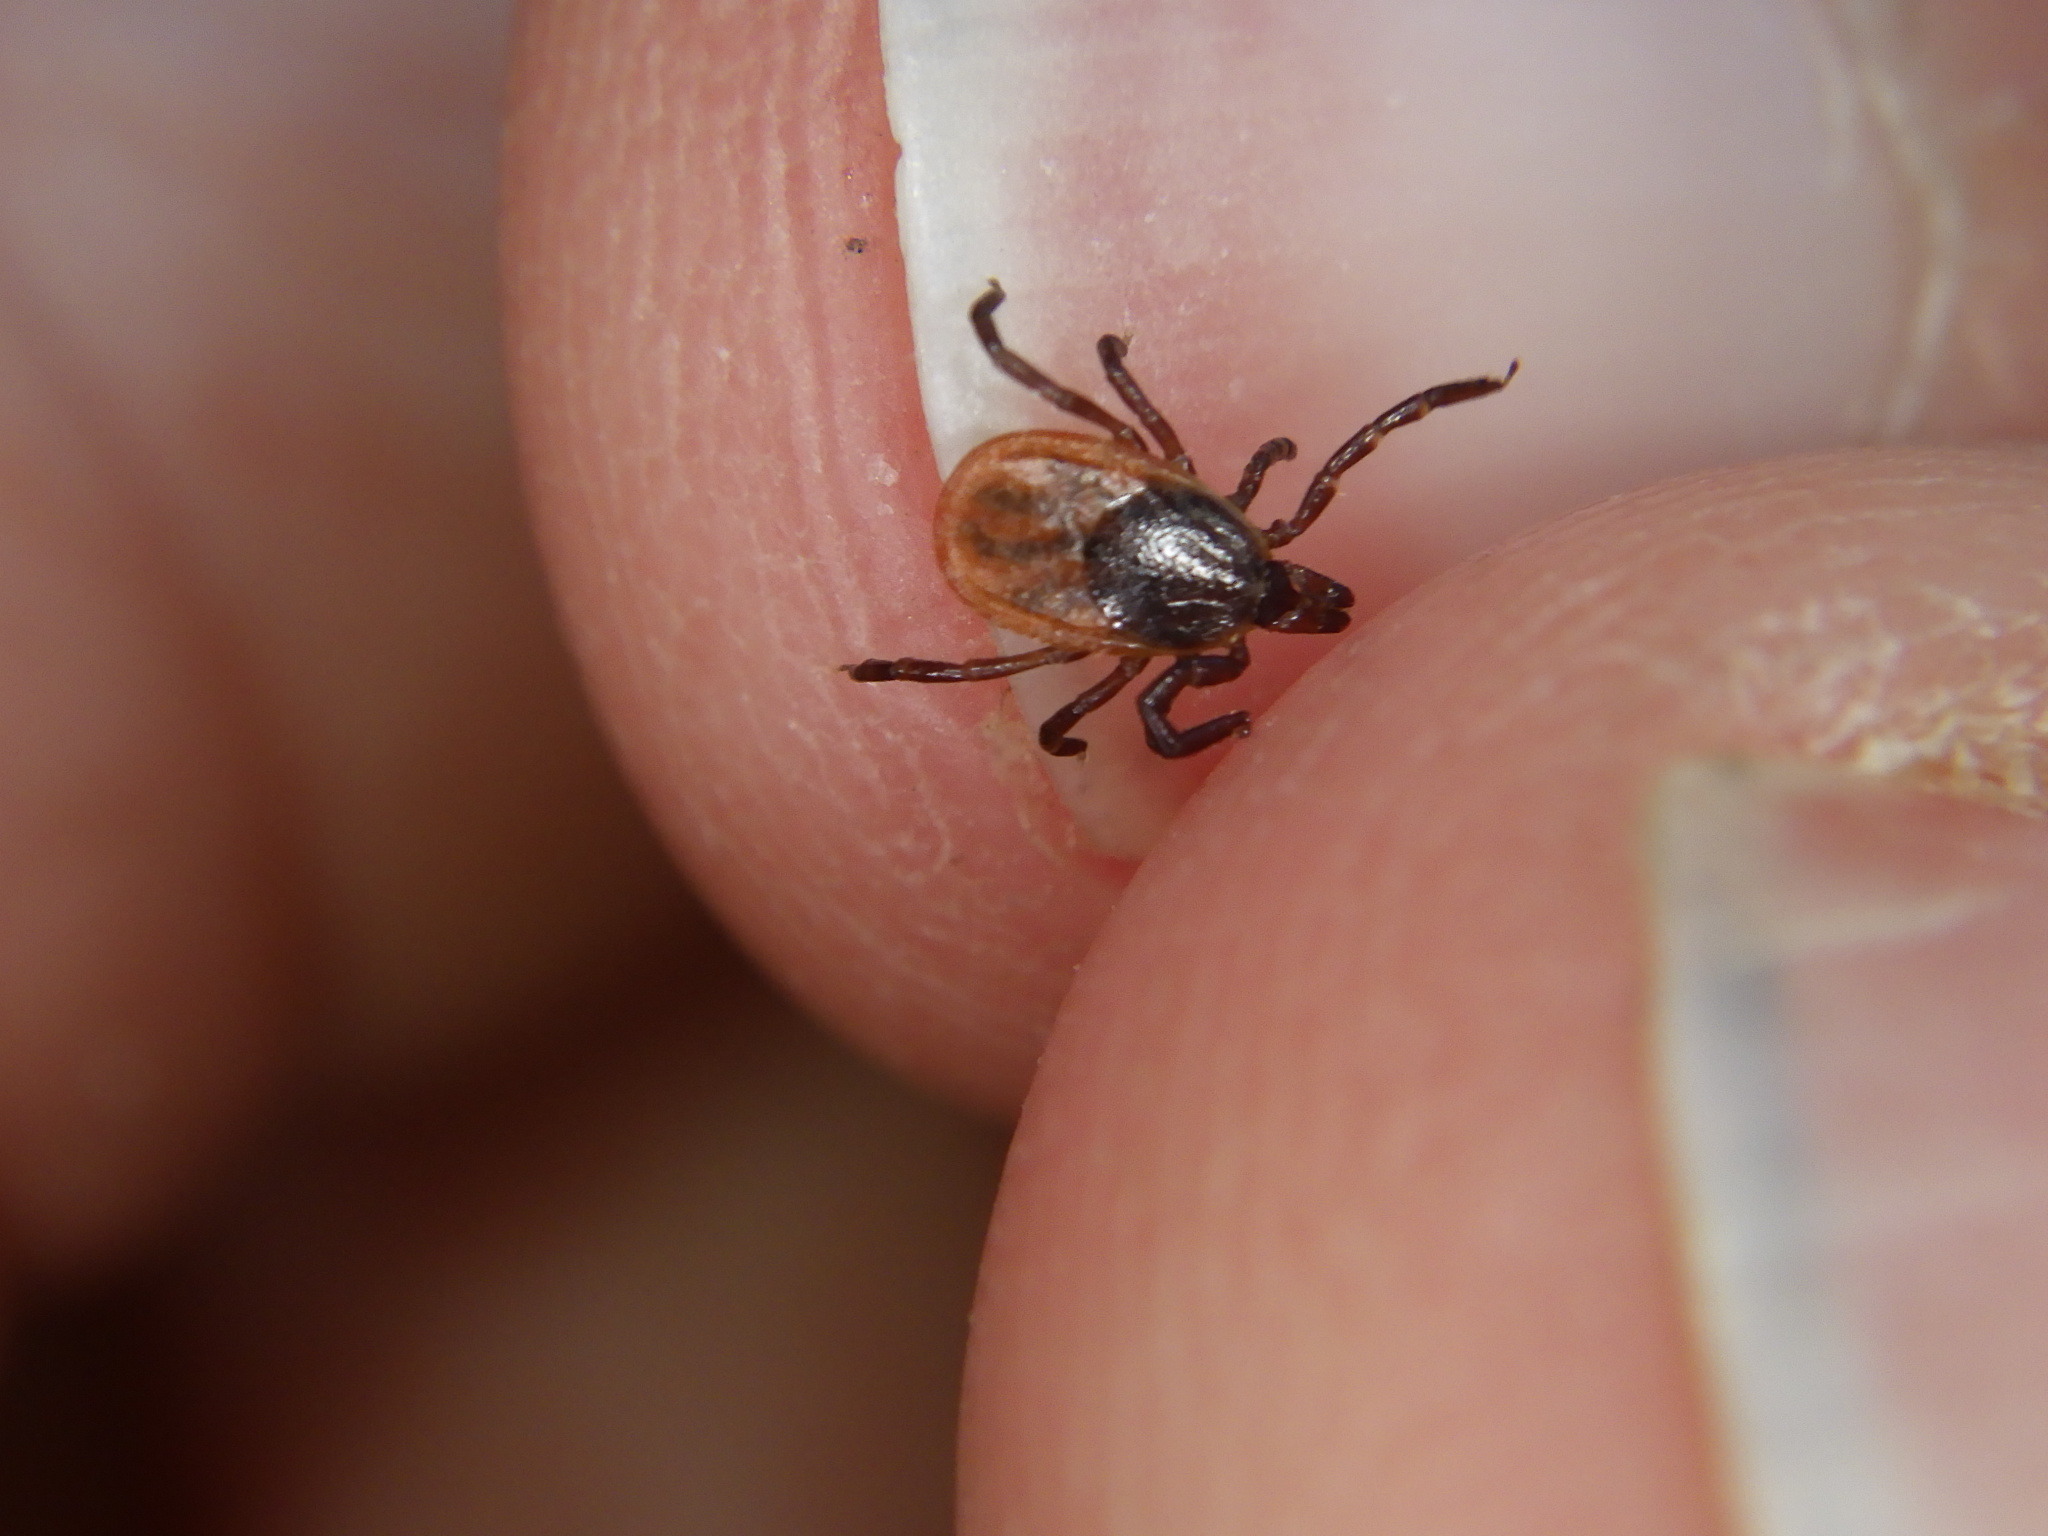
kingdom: Animalia
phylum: Arthropoda
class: Arachnida
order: Ixodida
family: Ixodidae
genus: Ixodes
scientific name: Ixodes scapularis
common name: Black legged tick
